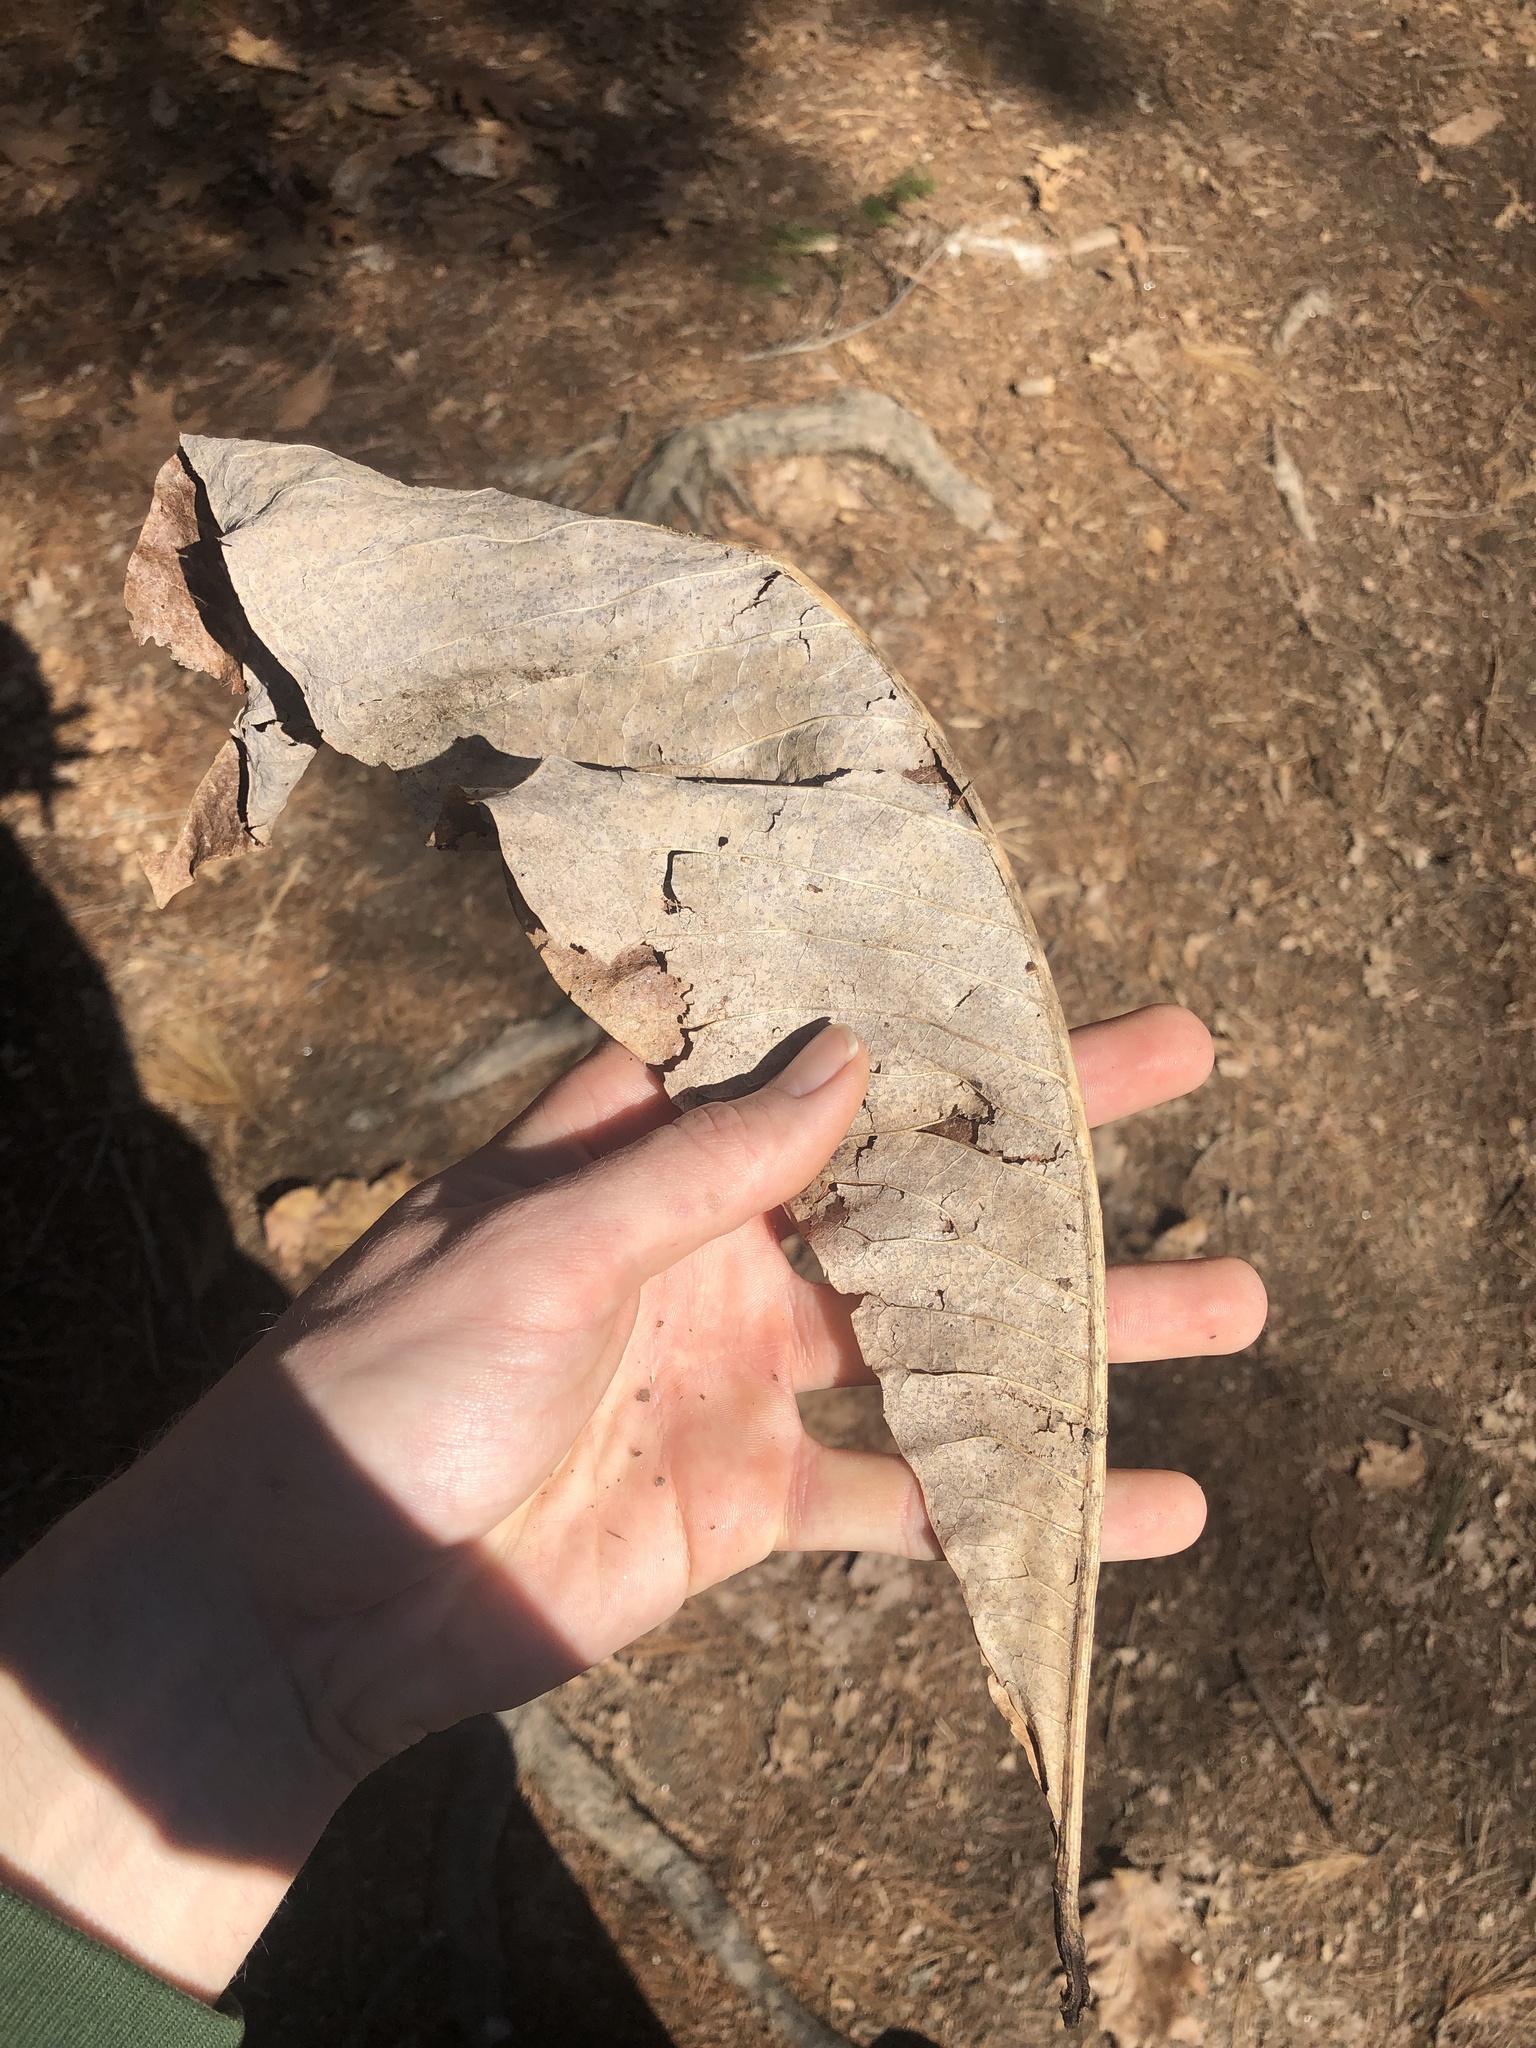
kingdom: Plantae
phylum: Tracheophyta
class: Magnoliopsida
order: Magnoliales
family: Magnoliaceae
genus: Magnolia
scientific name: Magnolia tripetala
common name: Umbrella magnolia
